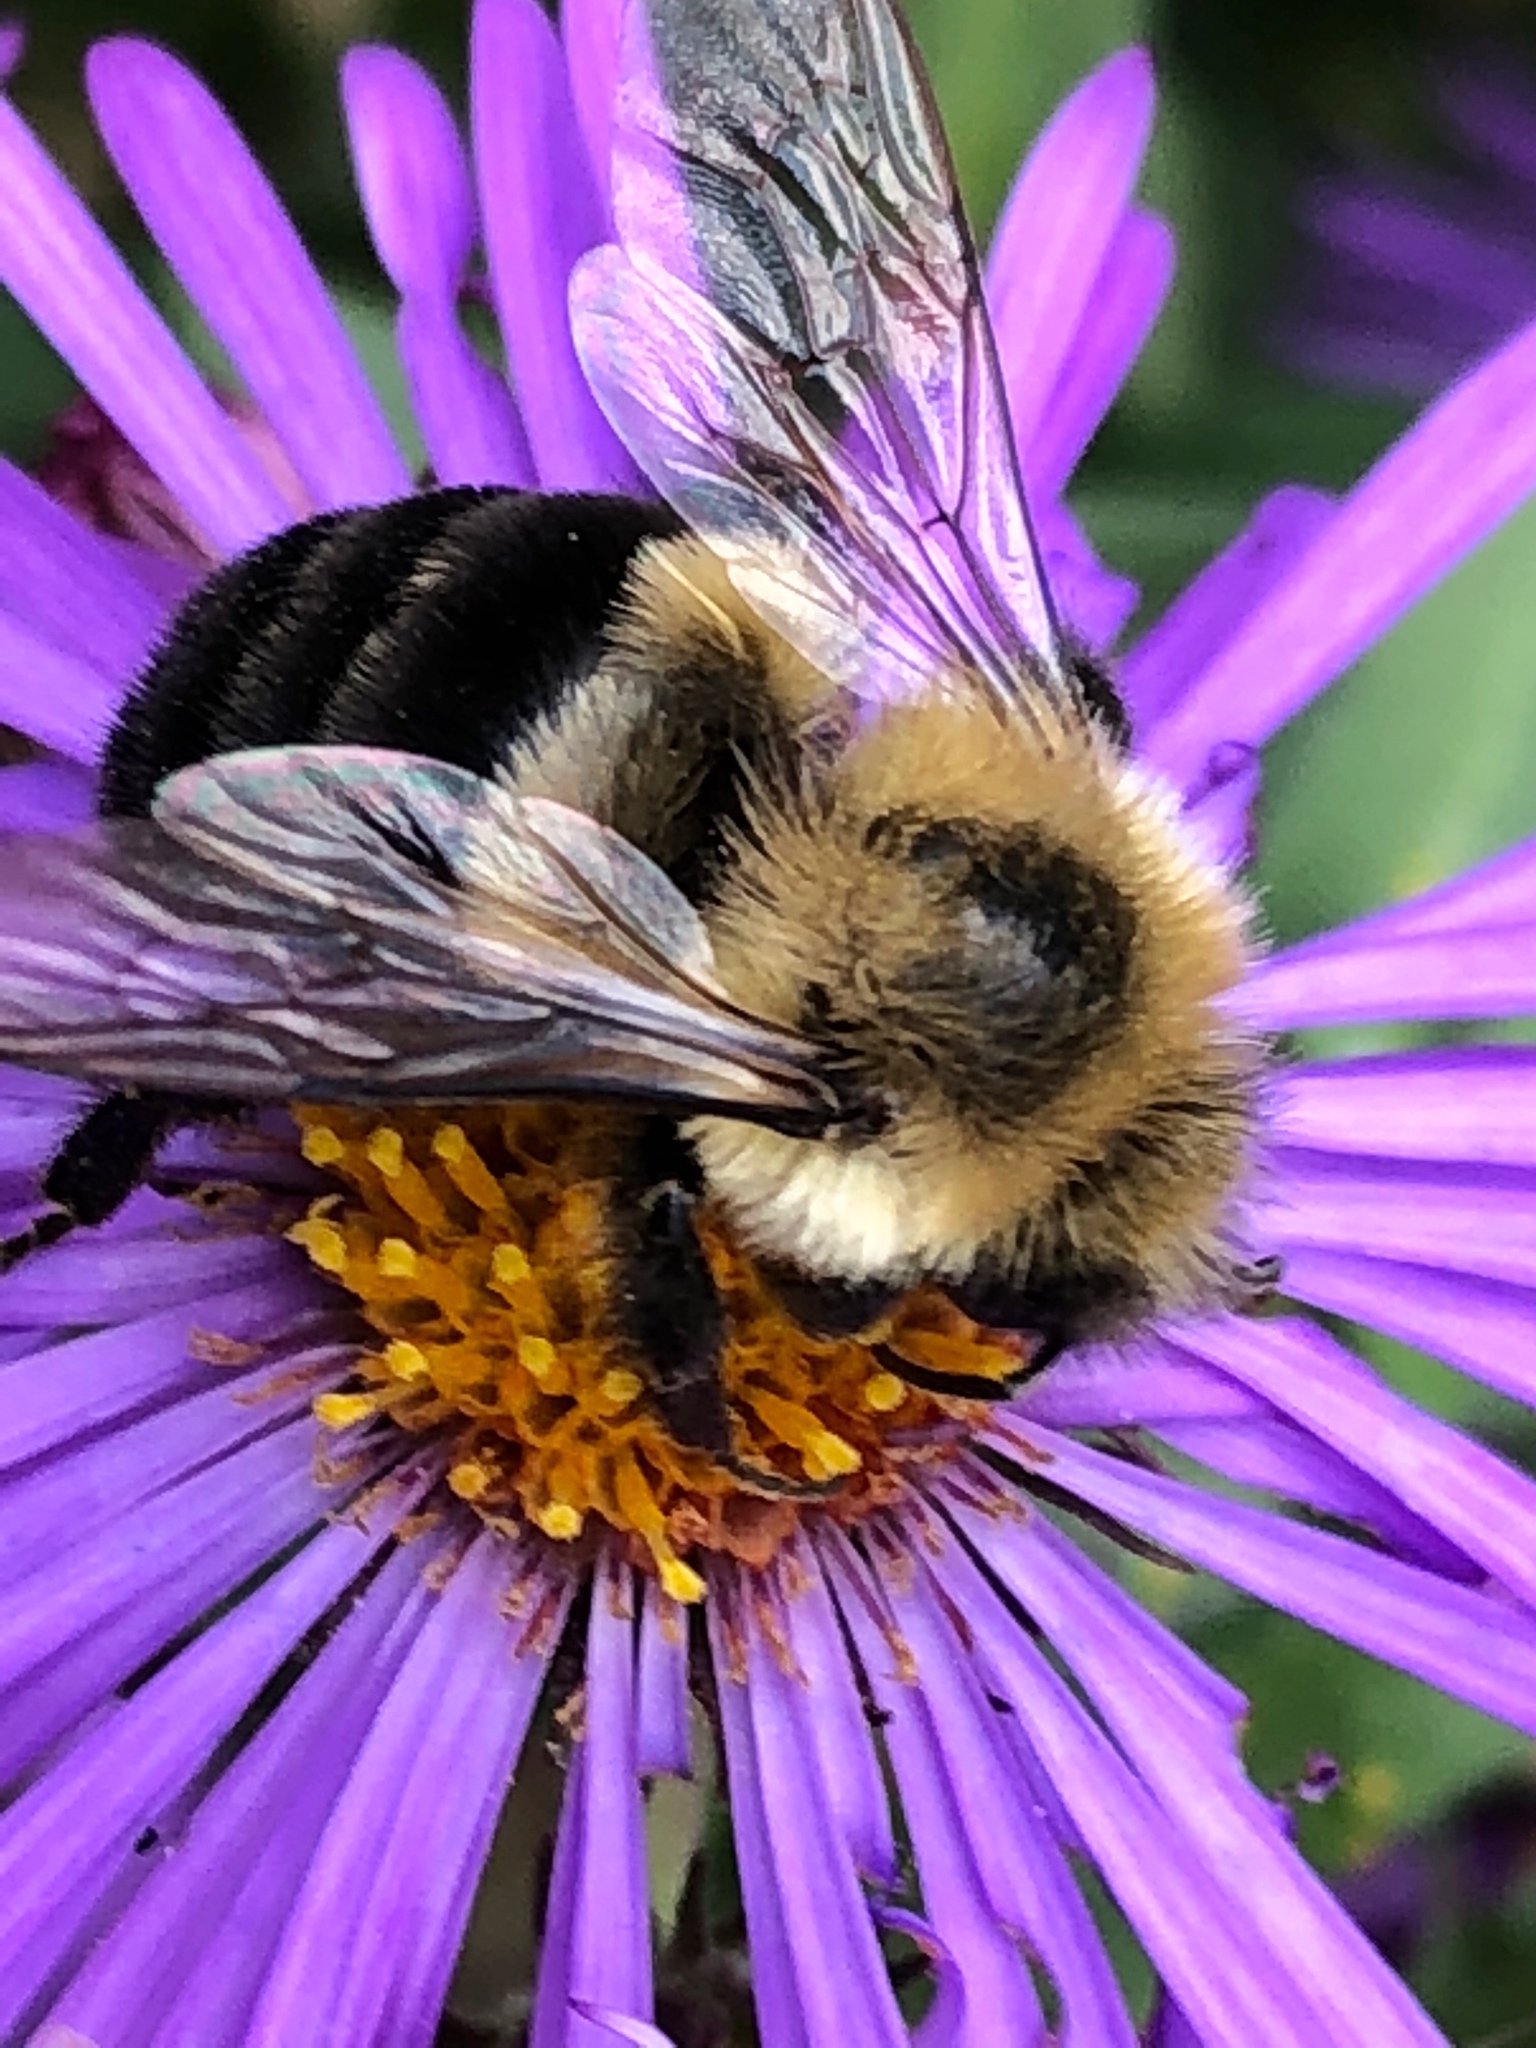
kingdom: Animalia
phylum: Arthropoda
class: Insecta
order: Hymenoptera
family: Apidae
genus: Bombus
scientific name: Bombus impatiens
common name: Common eastern bumble bee
